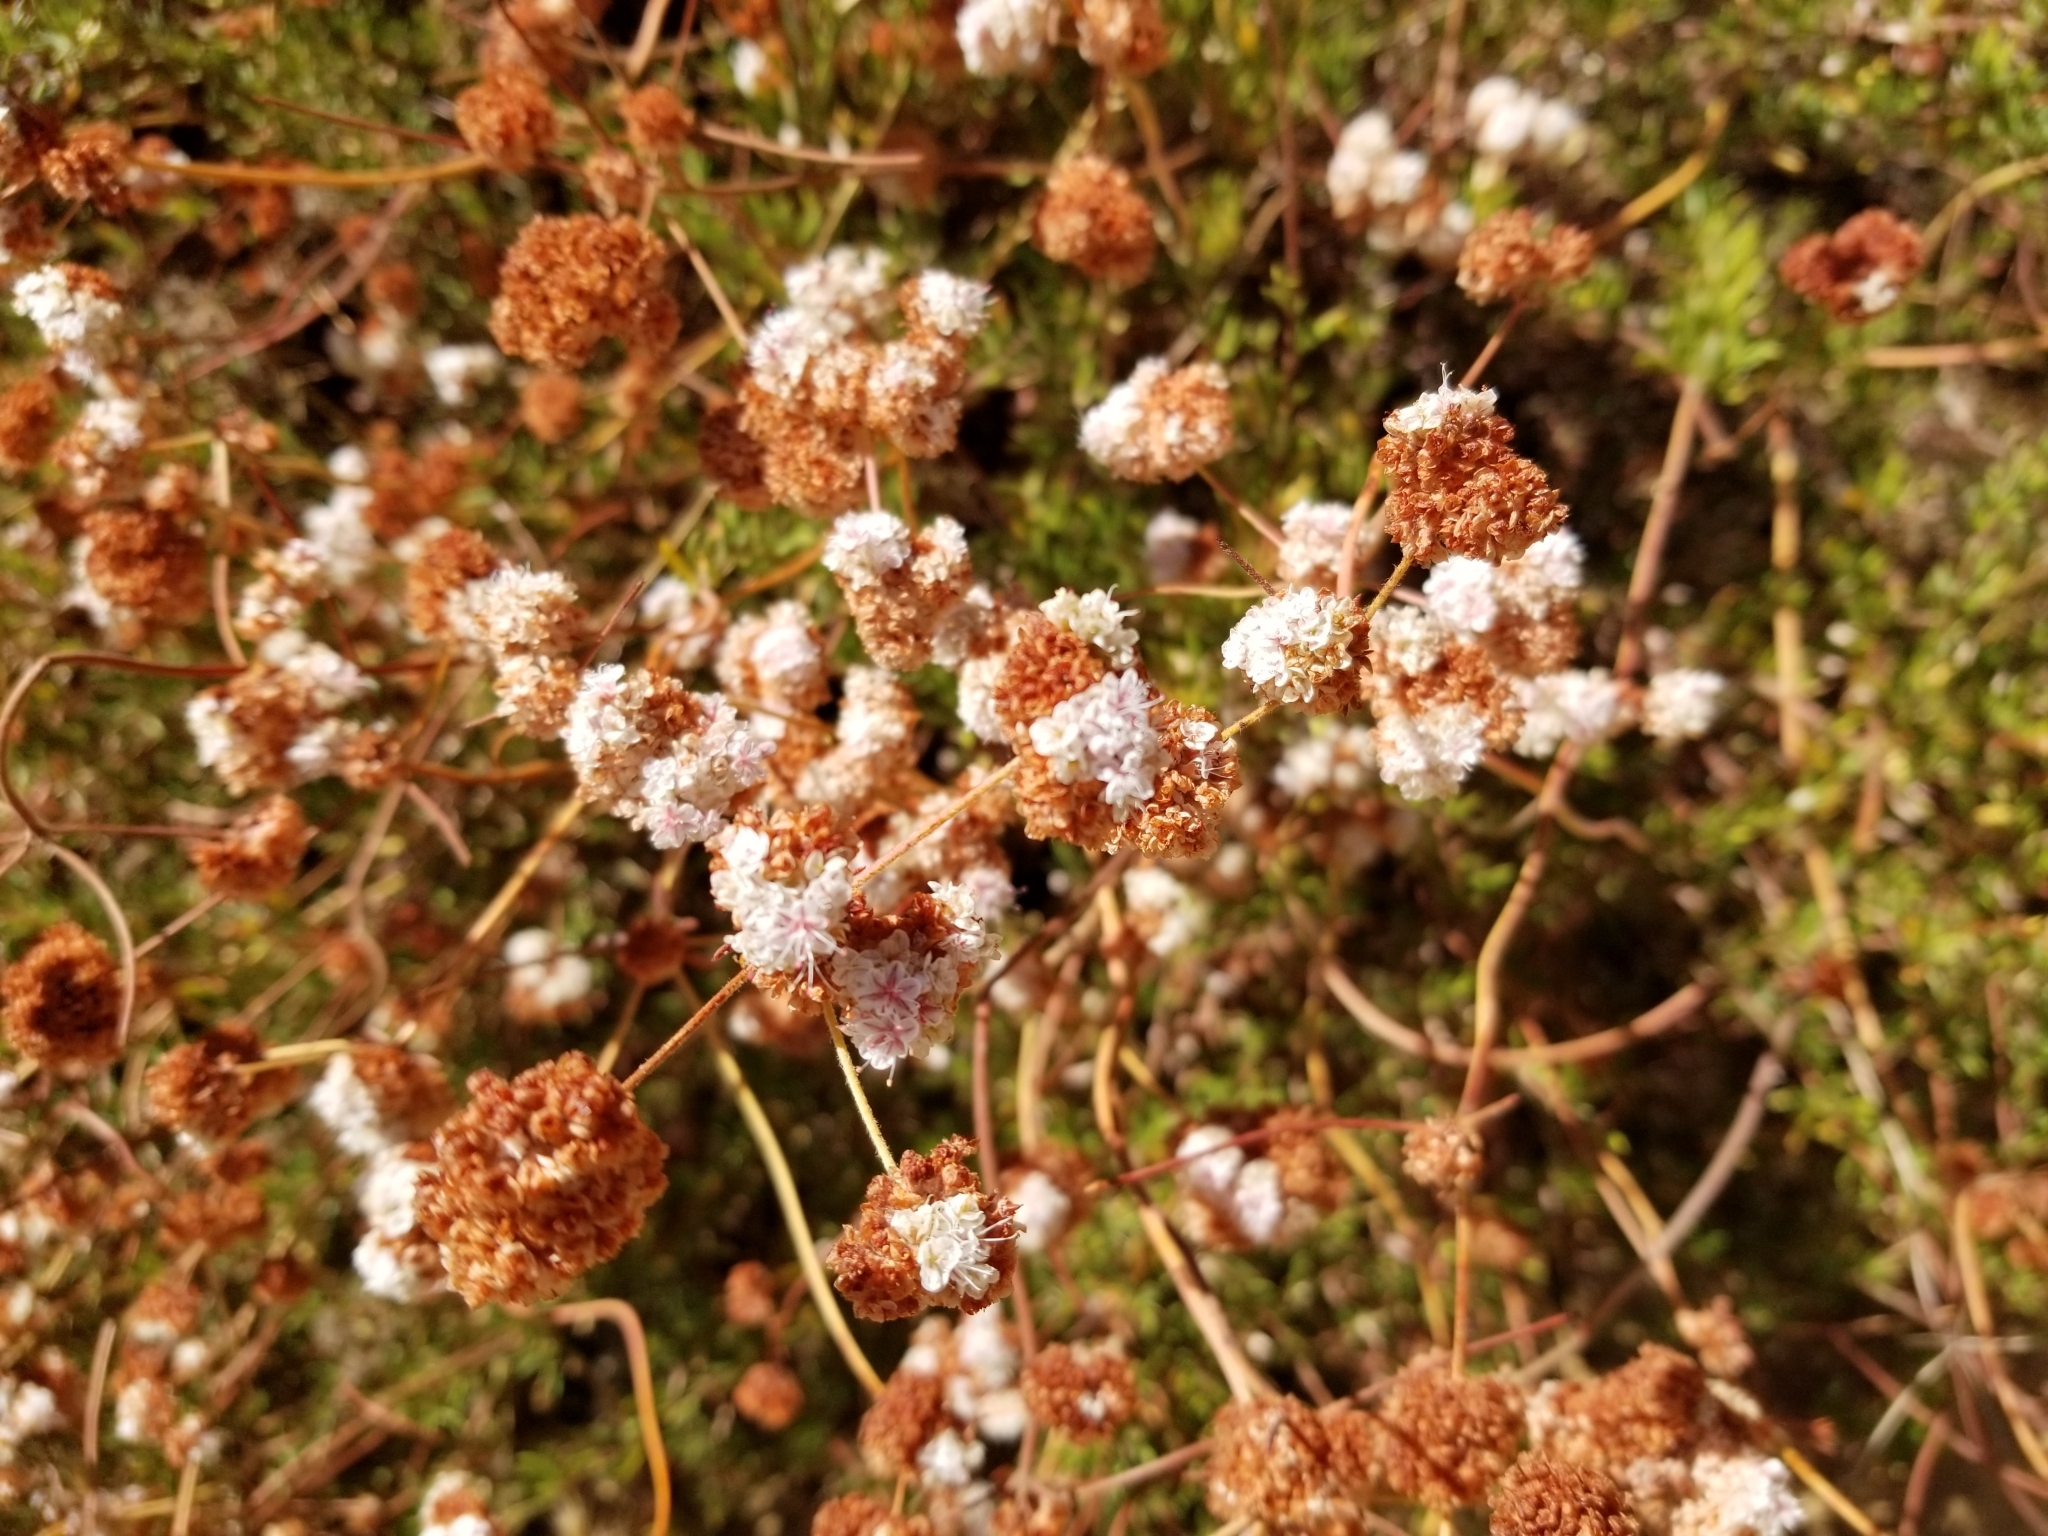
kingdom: Plantae
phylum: Tracheophyta
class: Magnoliopsida
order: Caryophyllales
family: Polygonaceae
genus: Eriogonum
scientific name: Eriogonum fasciculatum
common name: California wild buckwheat
